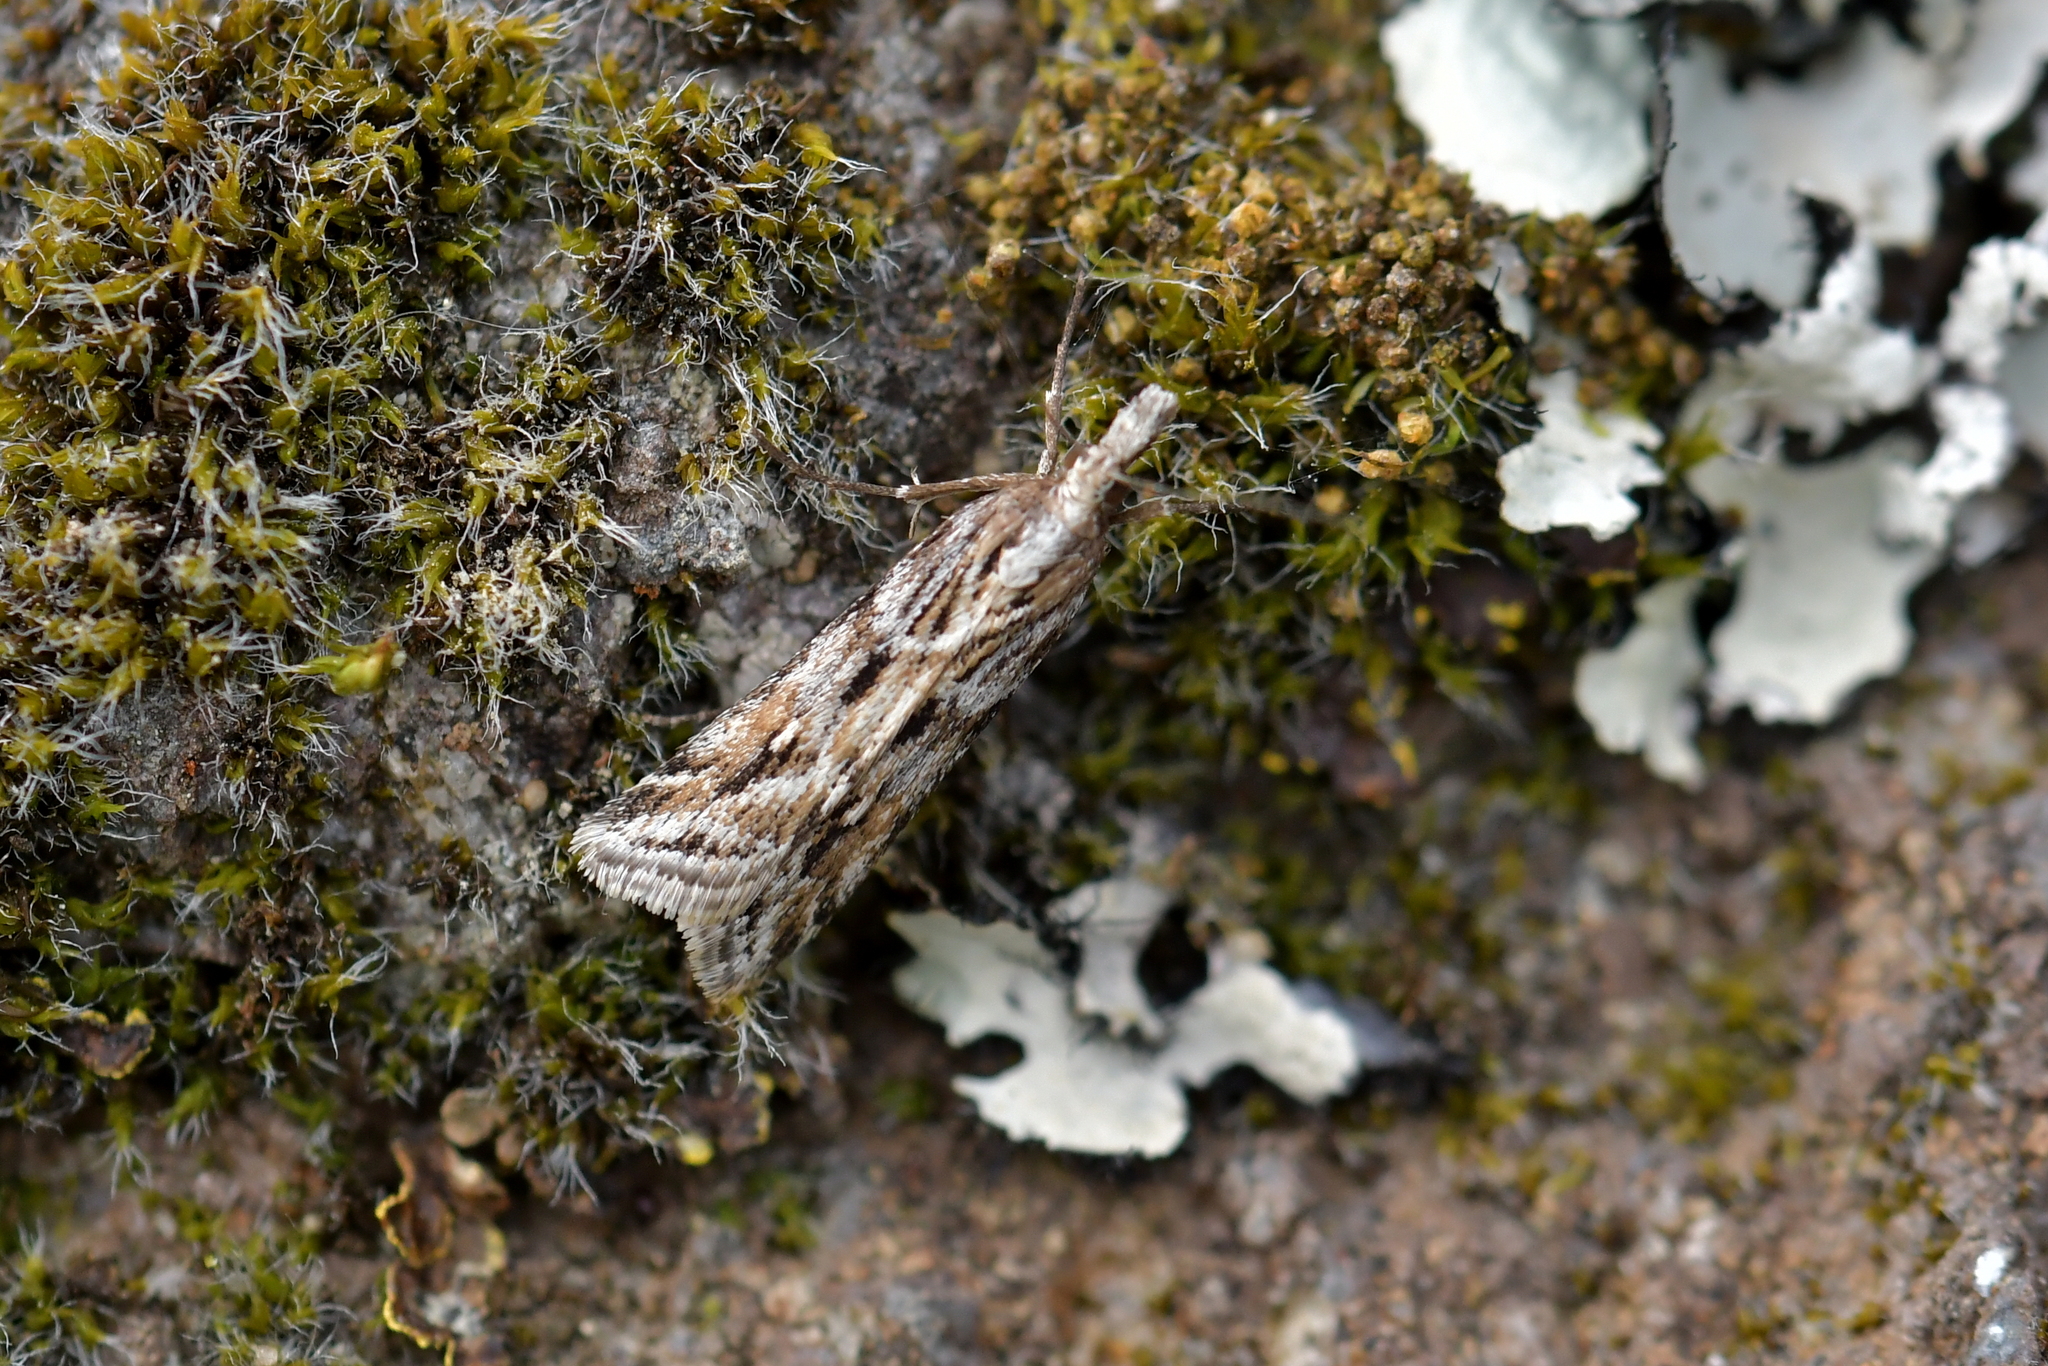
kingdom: Animalia
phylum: Arthropoda
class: Insecta
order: Lepidoptera
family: Crambidae
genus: Scoparia
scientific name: Scoparia exilis
